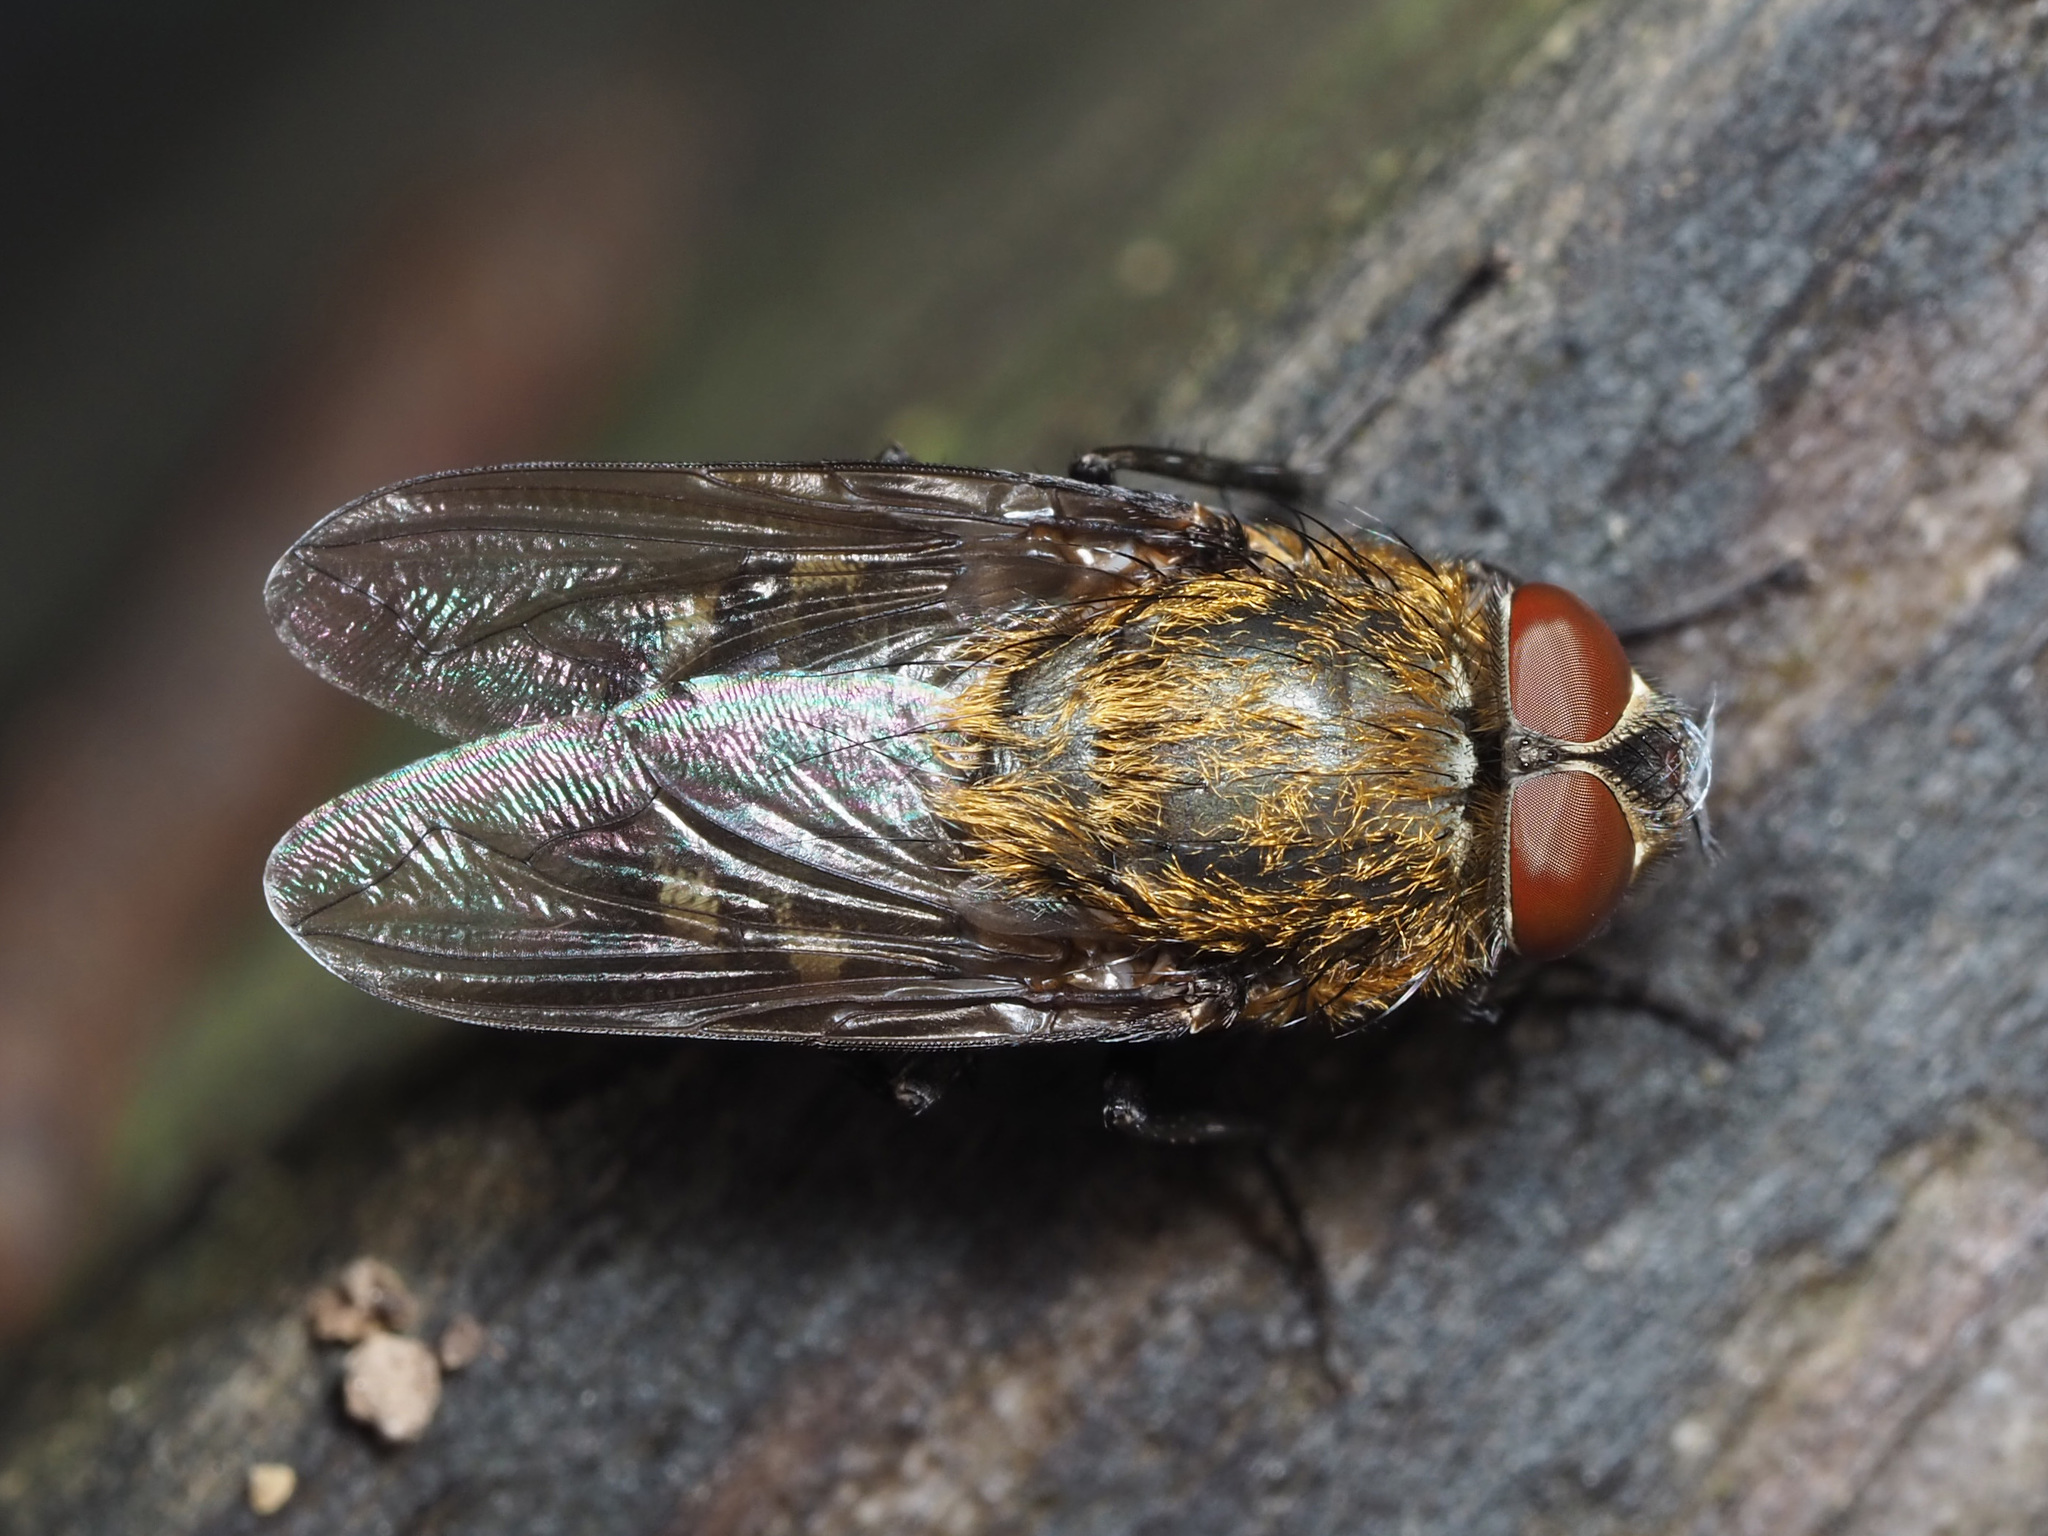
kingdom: Animalia
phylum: Arthropoda
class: Insecta
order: Diptera
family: Polleniidae
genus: Pollenia
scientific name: Pollenia
